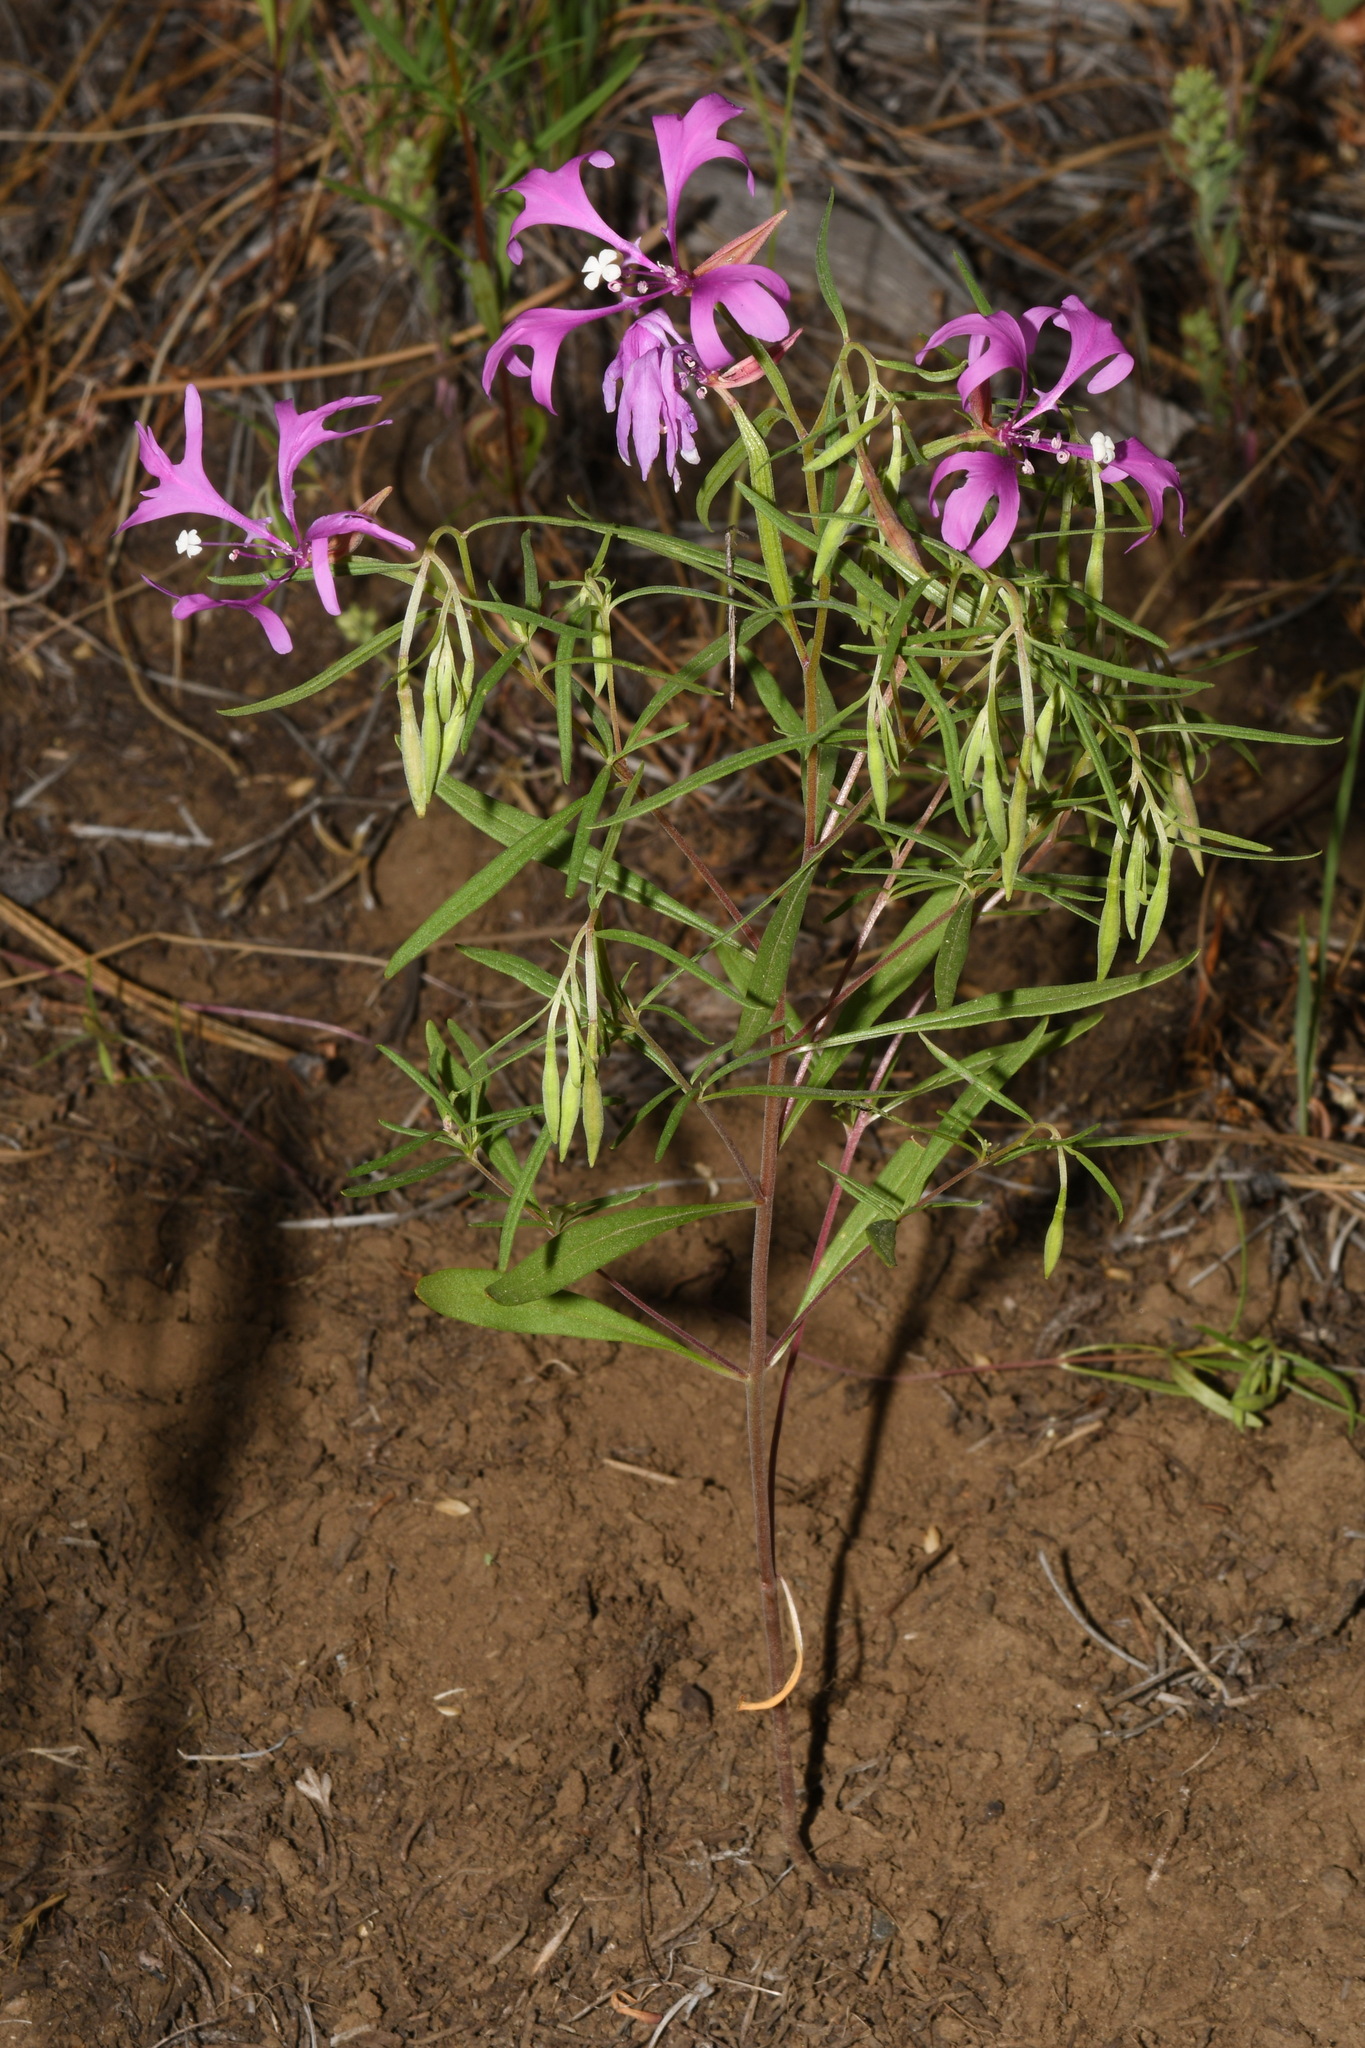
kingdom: Plantae
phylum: Tracheophyta
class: Magnoliopsida
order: Myrtales
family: Onagraceae
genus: Clarkia
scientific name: Clarkia pulchella
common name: Deer horn
